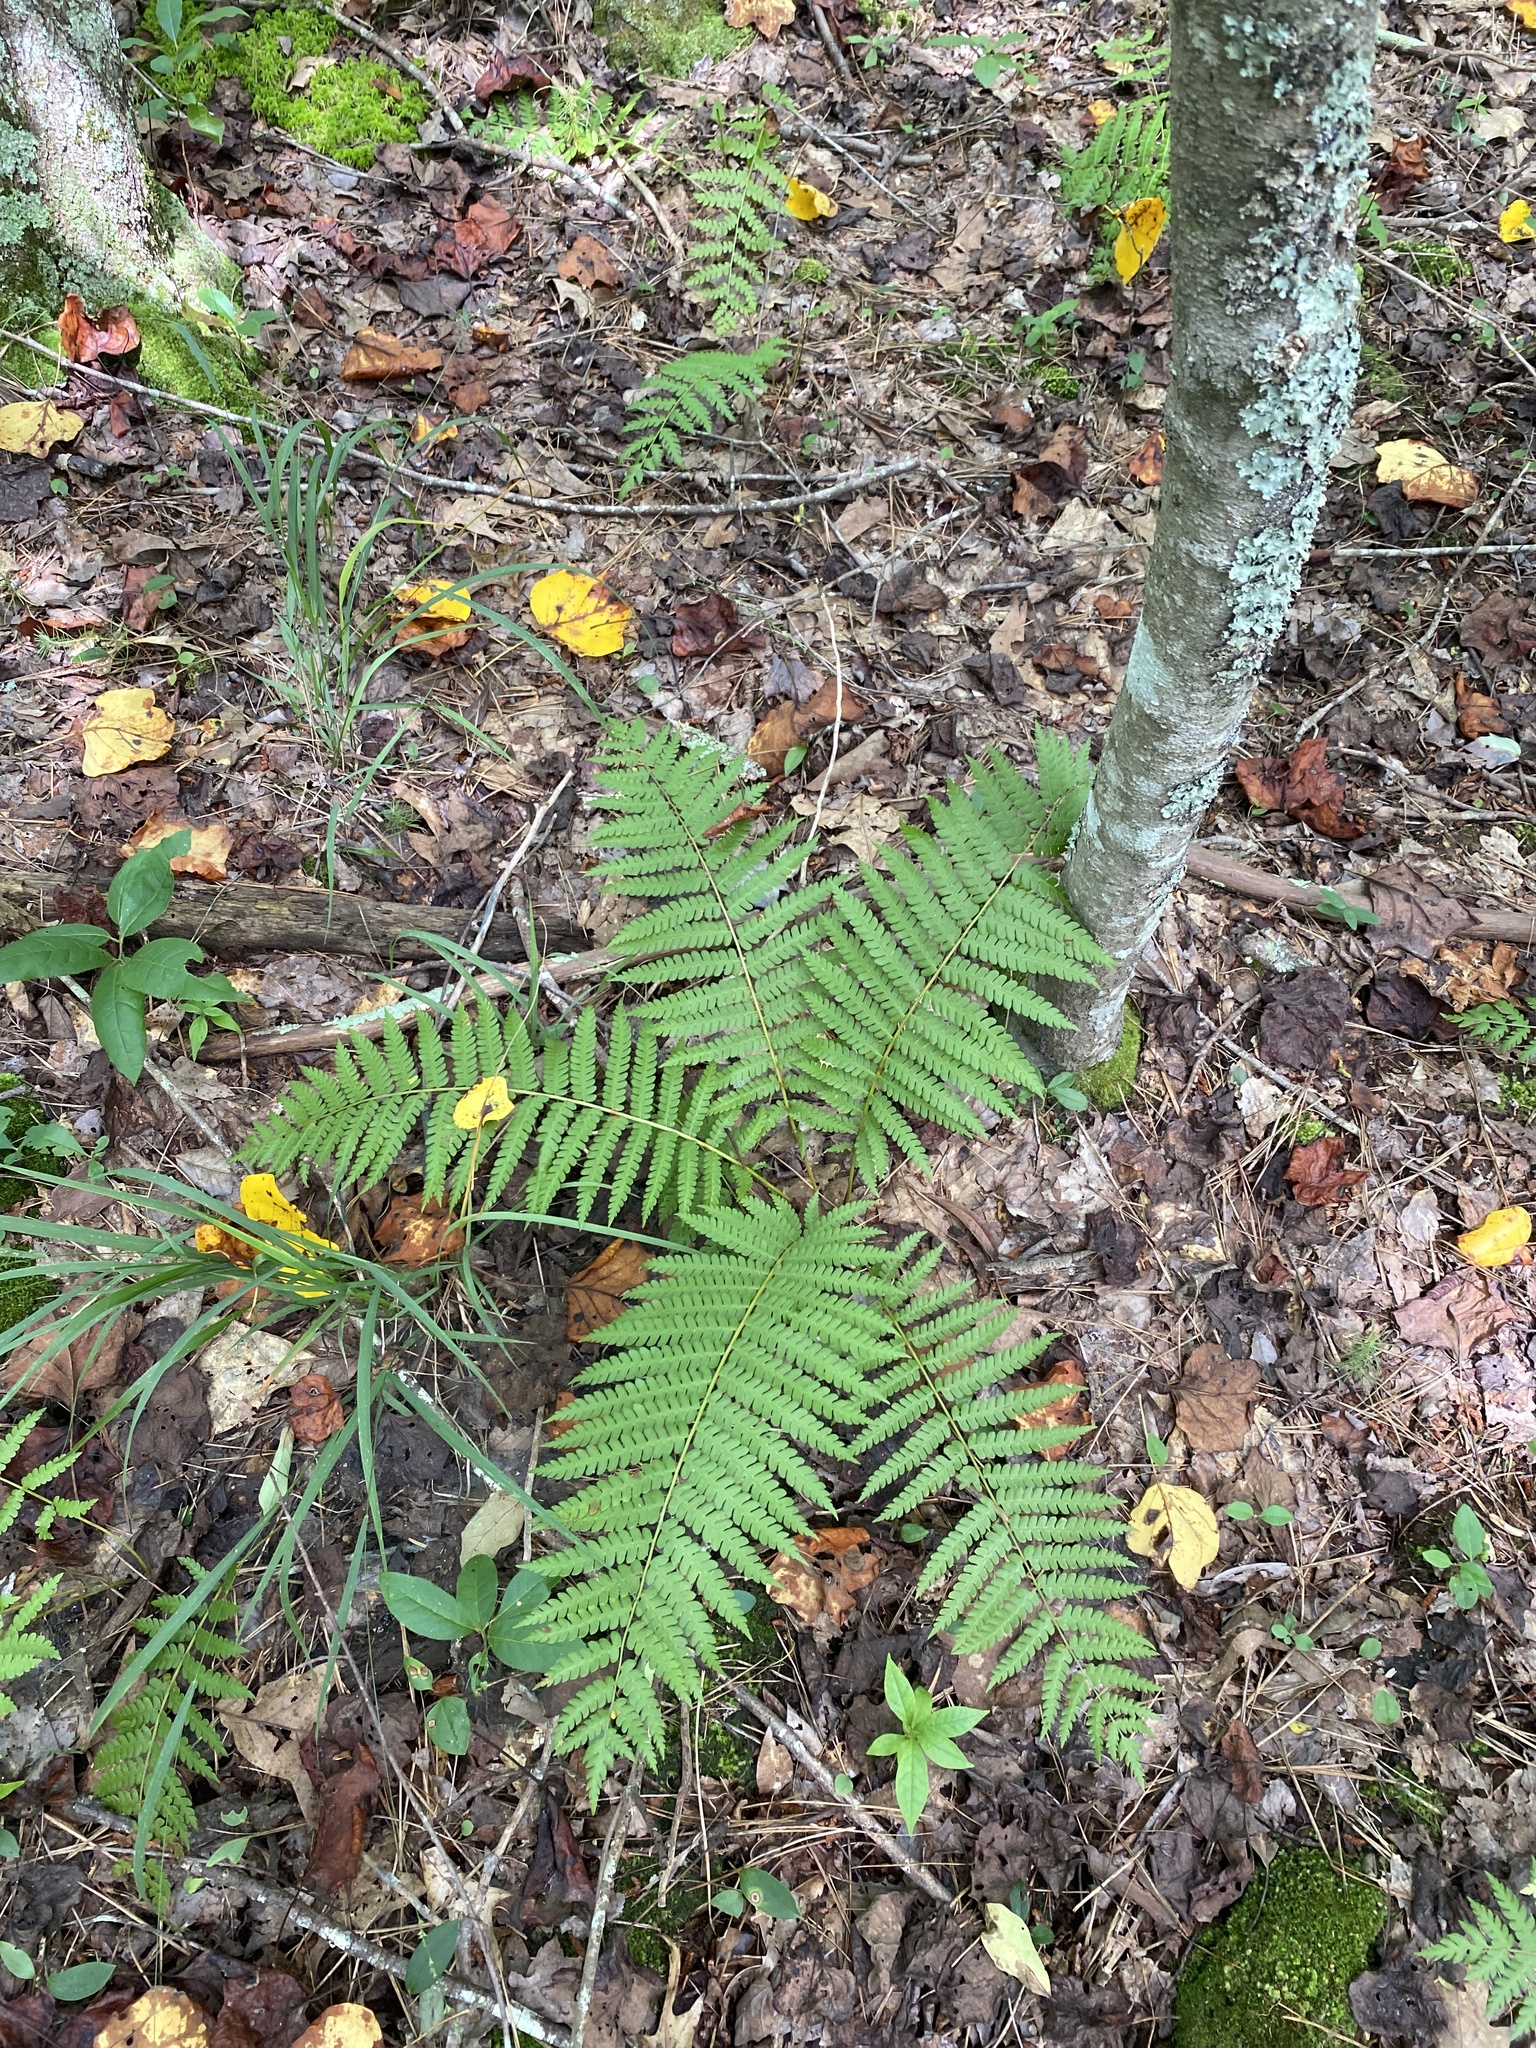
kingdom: Plantae
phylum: Tracheophyta
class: Polypodiopsida
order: Osmundales
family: Osmundaceae
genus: Osmundastrum
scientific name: Osmundastrum cinnamomeum
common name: Cinnamon fern
